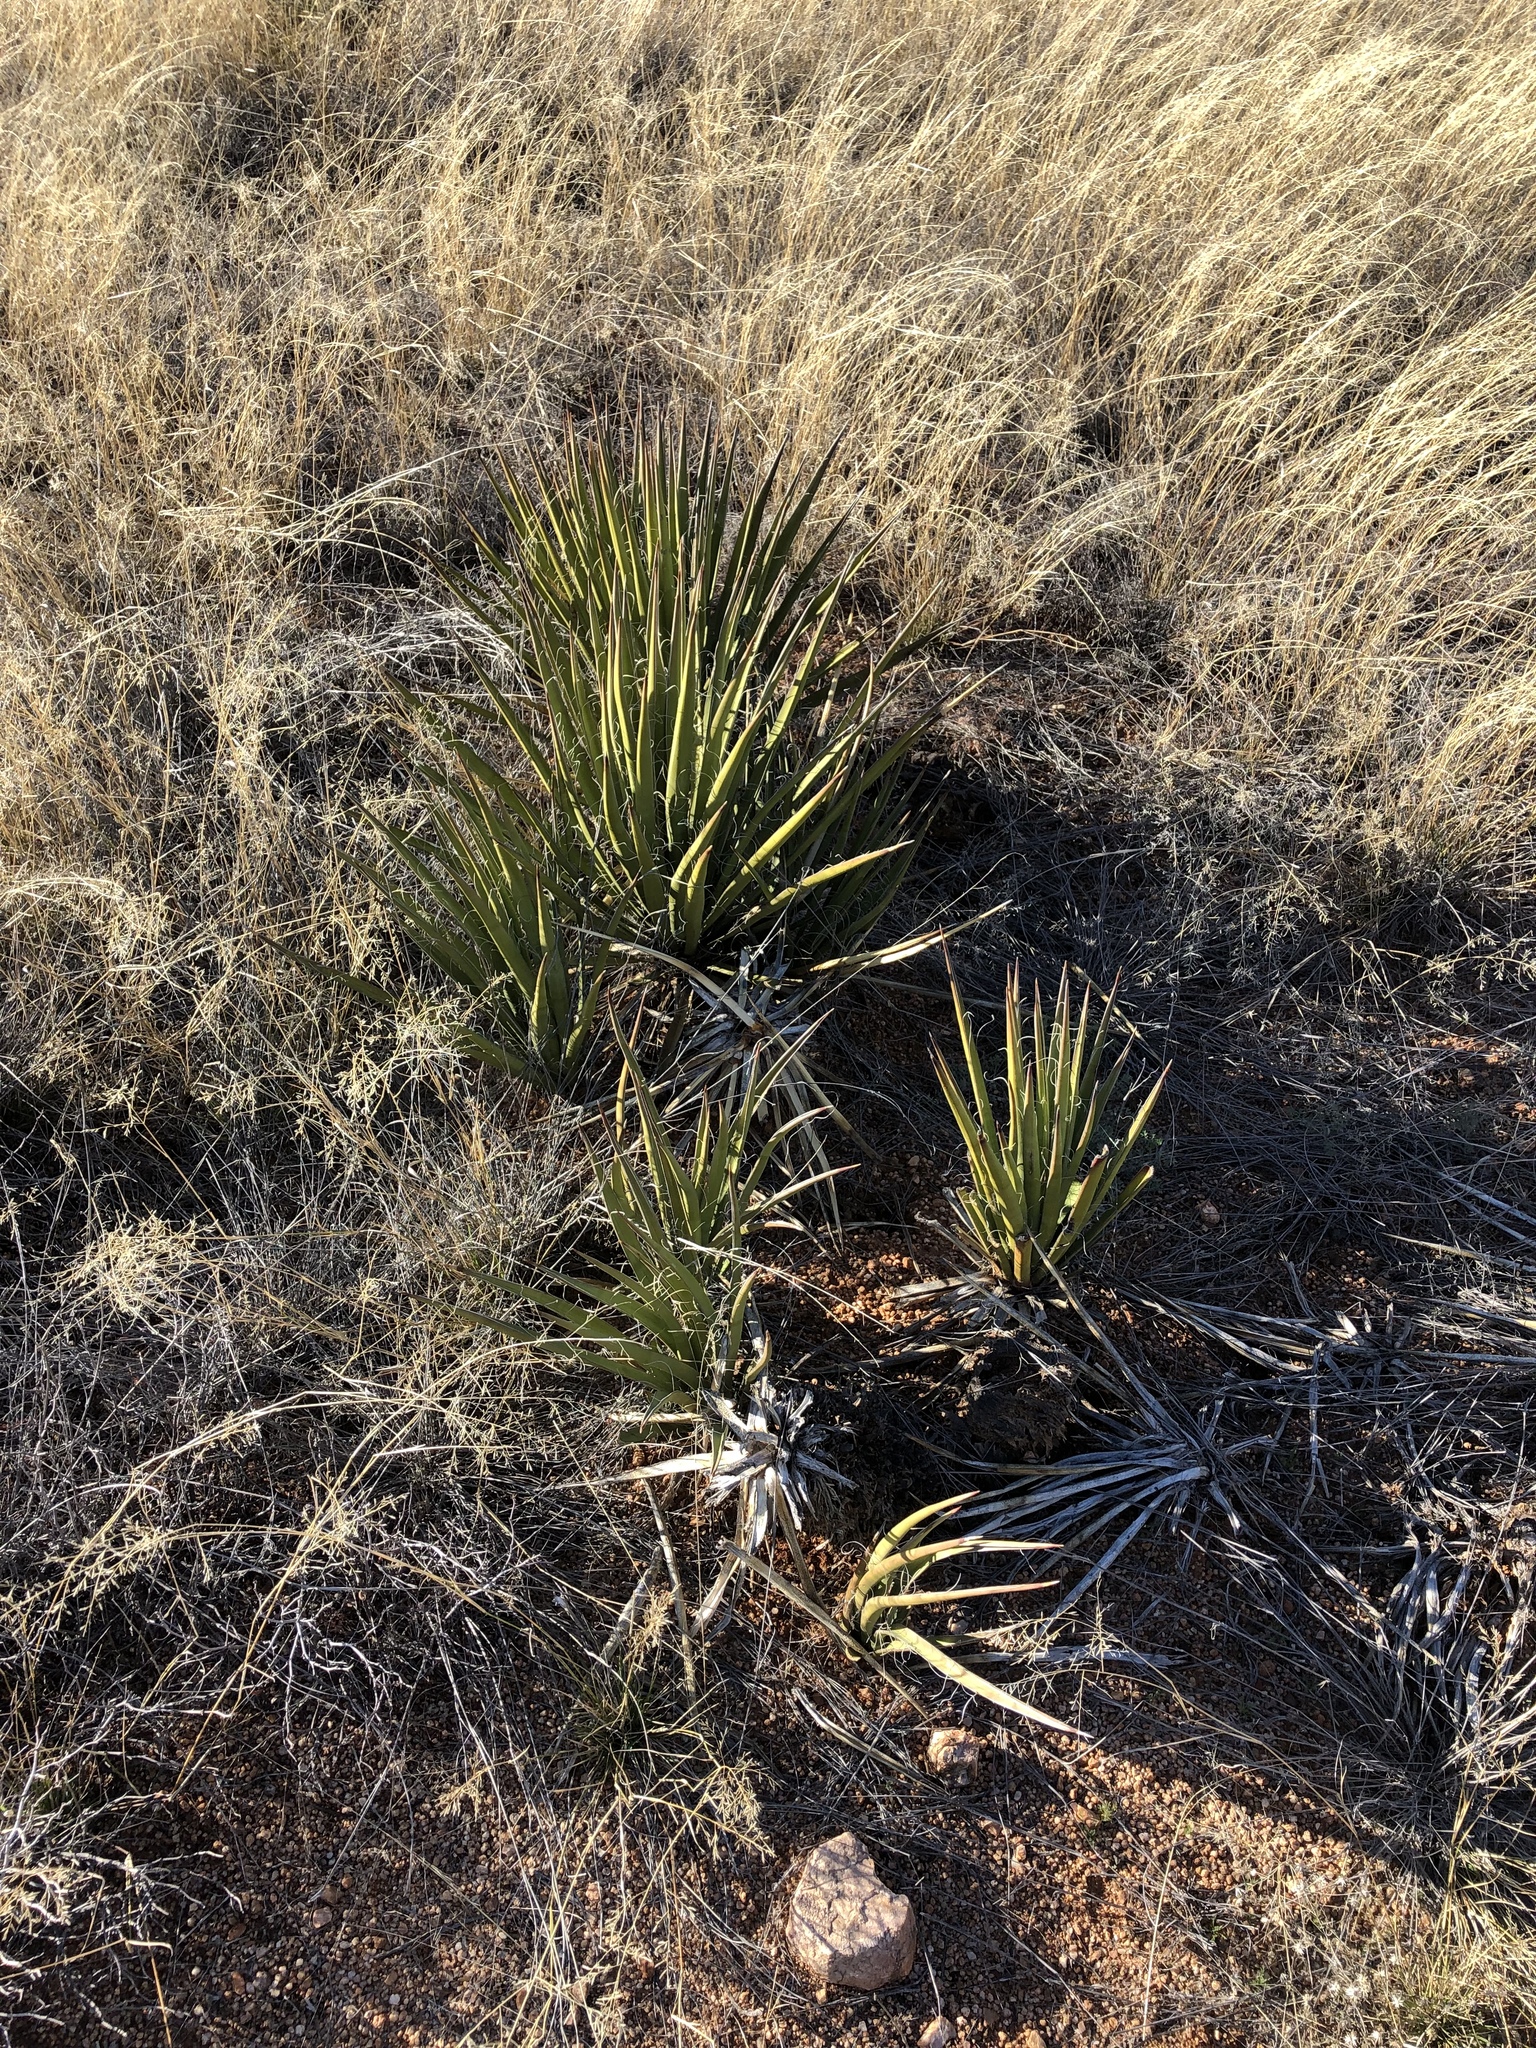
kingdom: Plantae
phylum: Tracheophyta
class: Liliopsida
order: Asparagales
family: Asparagaceae
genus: Yucca
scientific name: Yucca baccata
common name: Banana yucca
